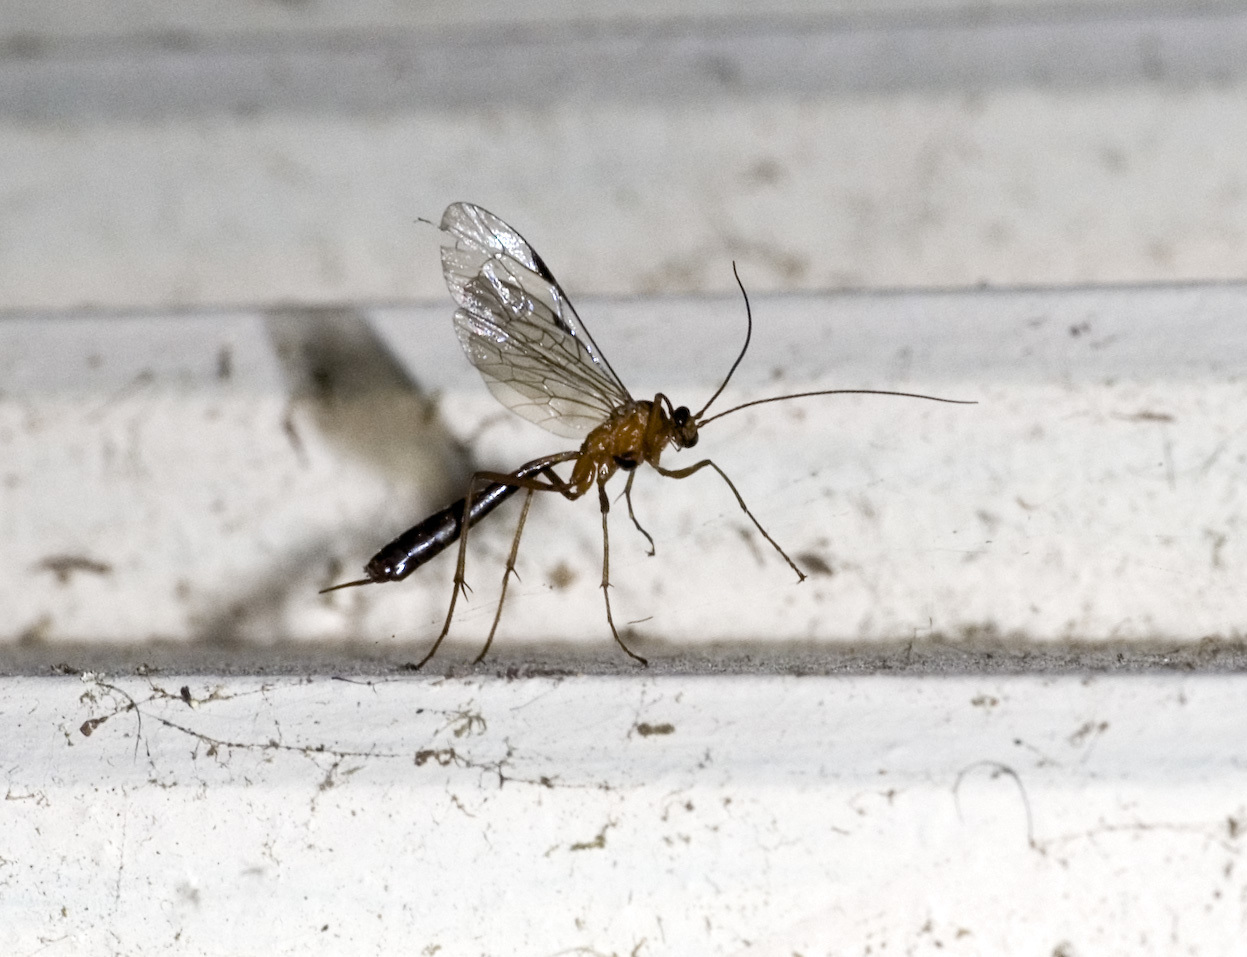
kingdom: Animalia
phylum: Arthropoda
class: Insecta
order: Hymenoptera
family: Ichneumonidae
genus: Netelia
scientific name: Netelia ephippiata
